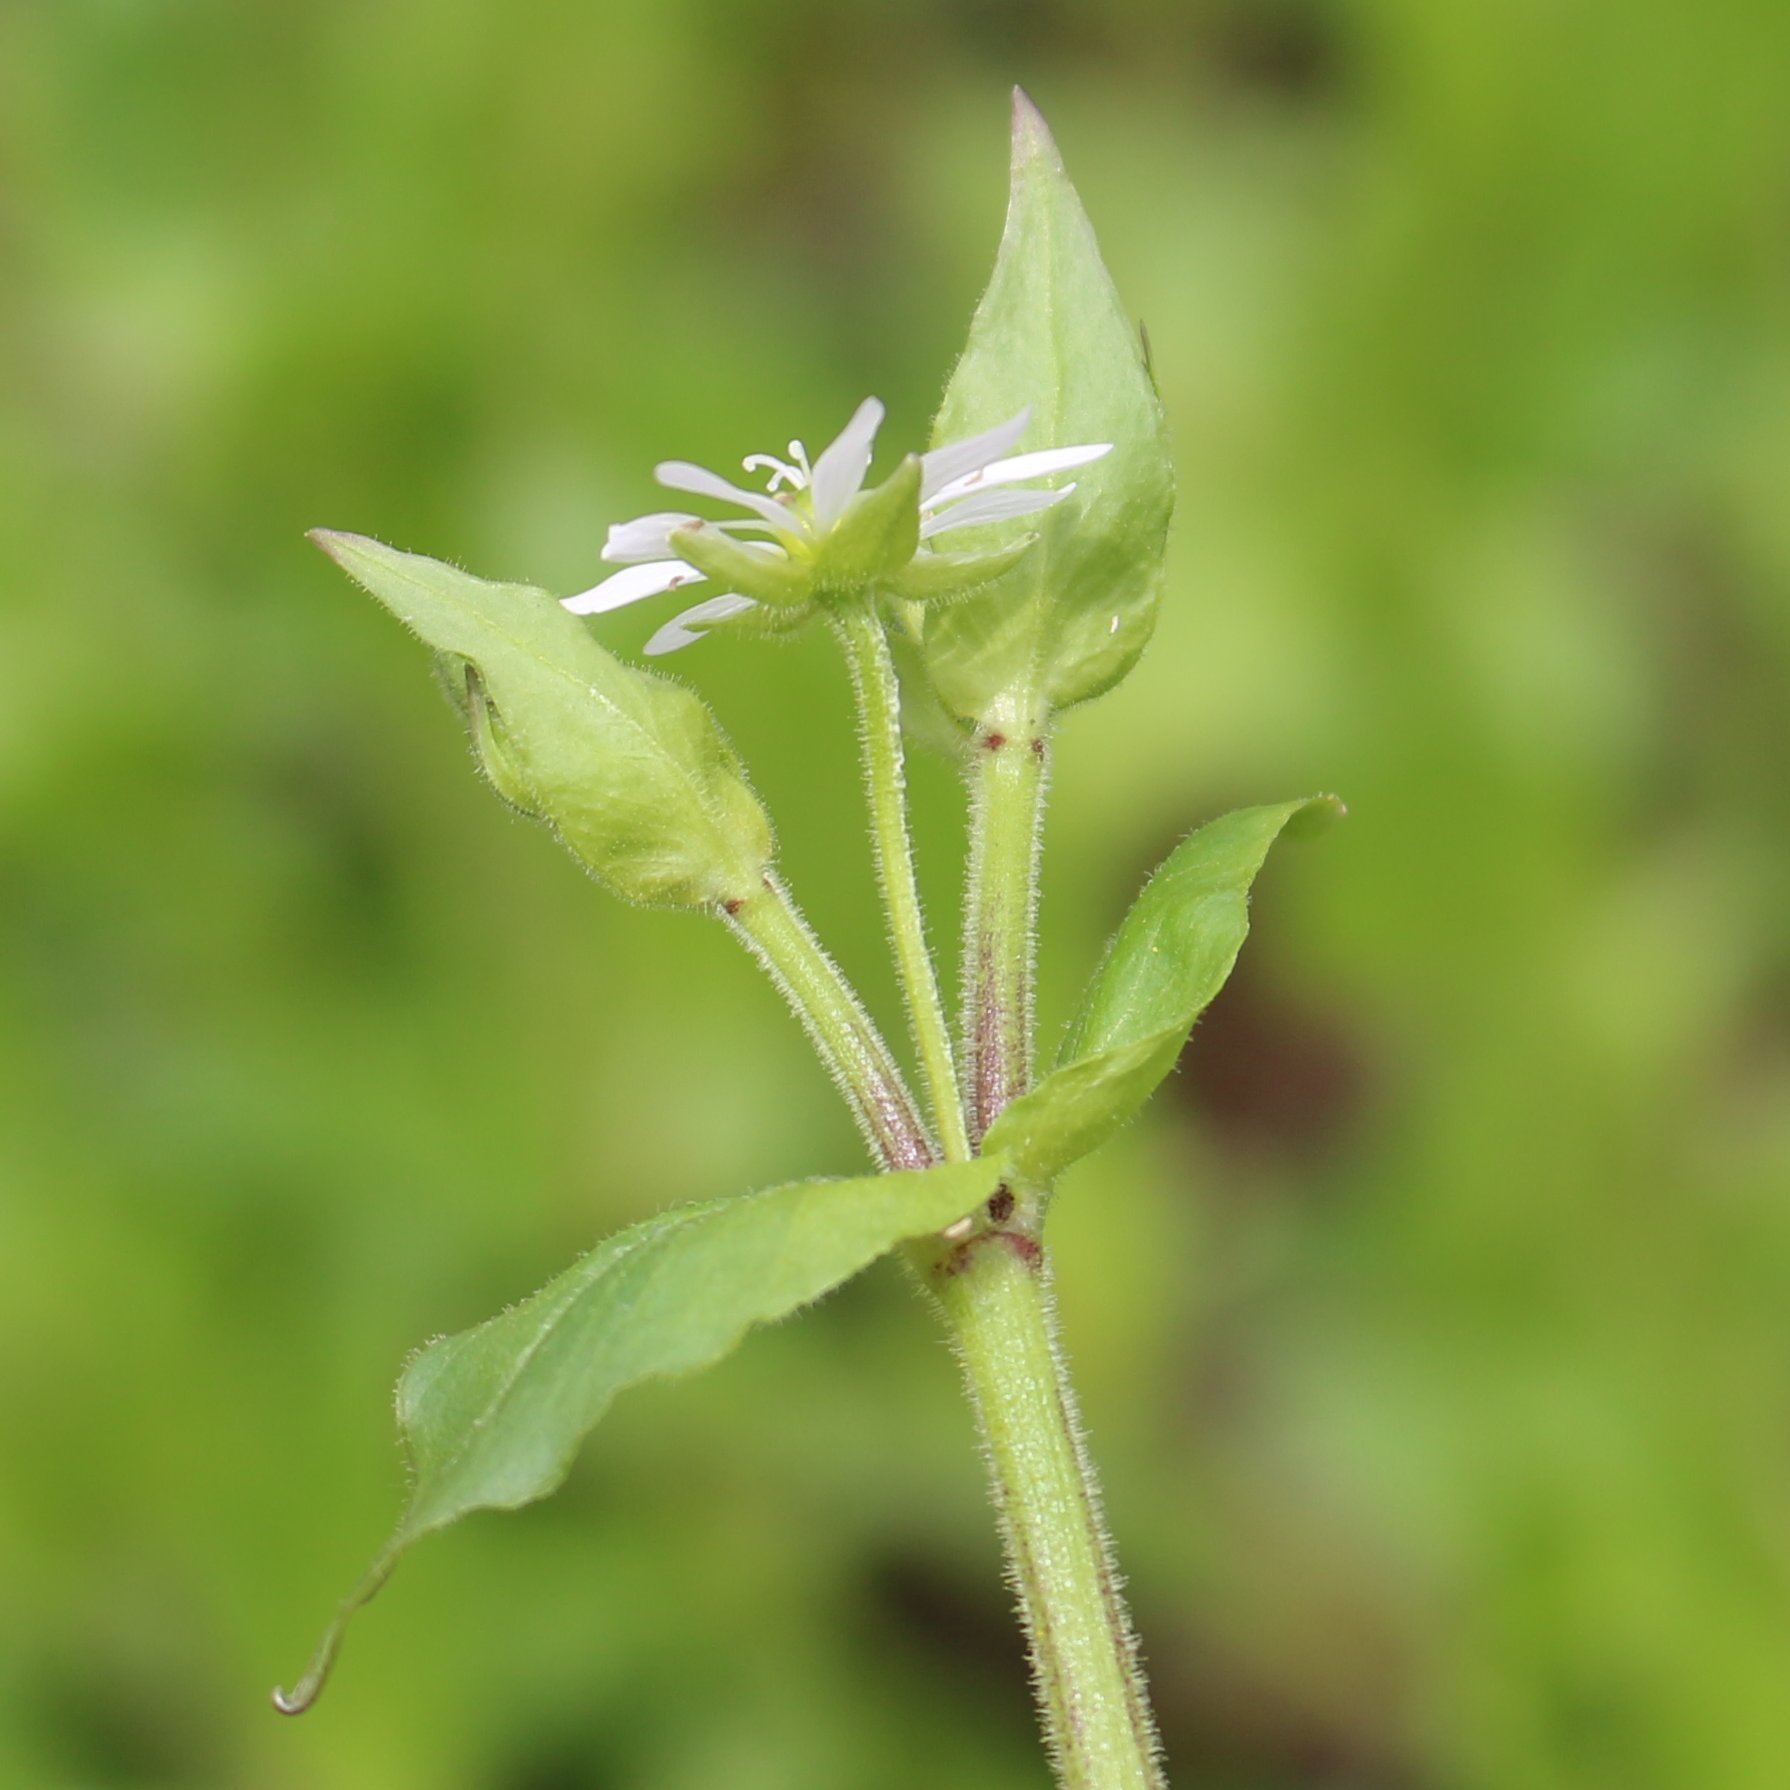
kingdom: Plantae
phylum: Tracheophyta
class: Magnoliopsida
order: Caryophyllales
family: Caryophyllaceae
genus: Stellaria
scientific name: Stellaria aquatica
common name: Water chickweed
